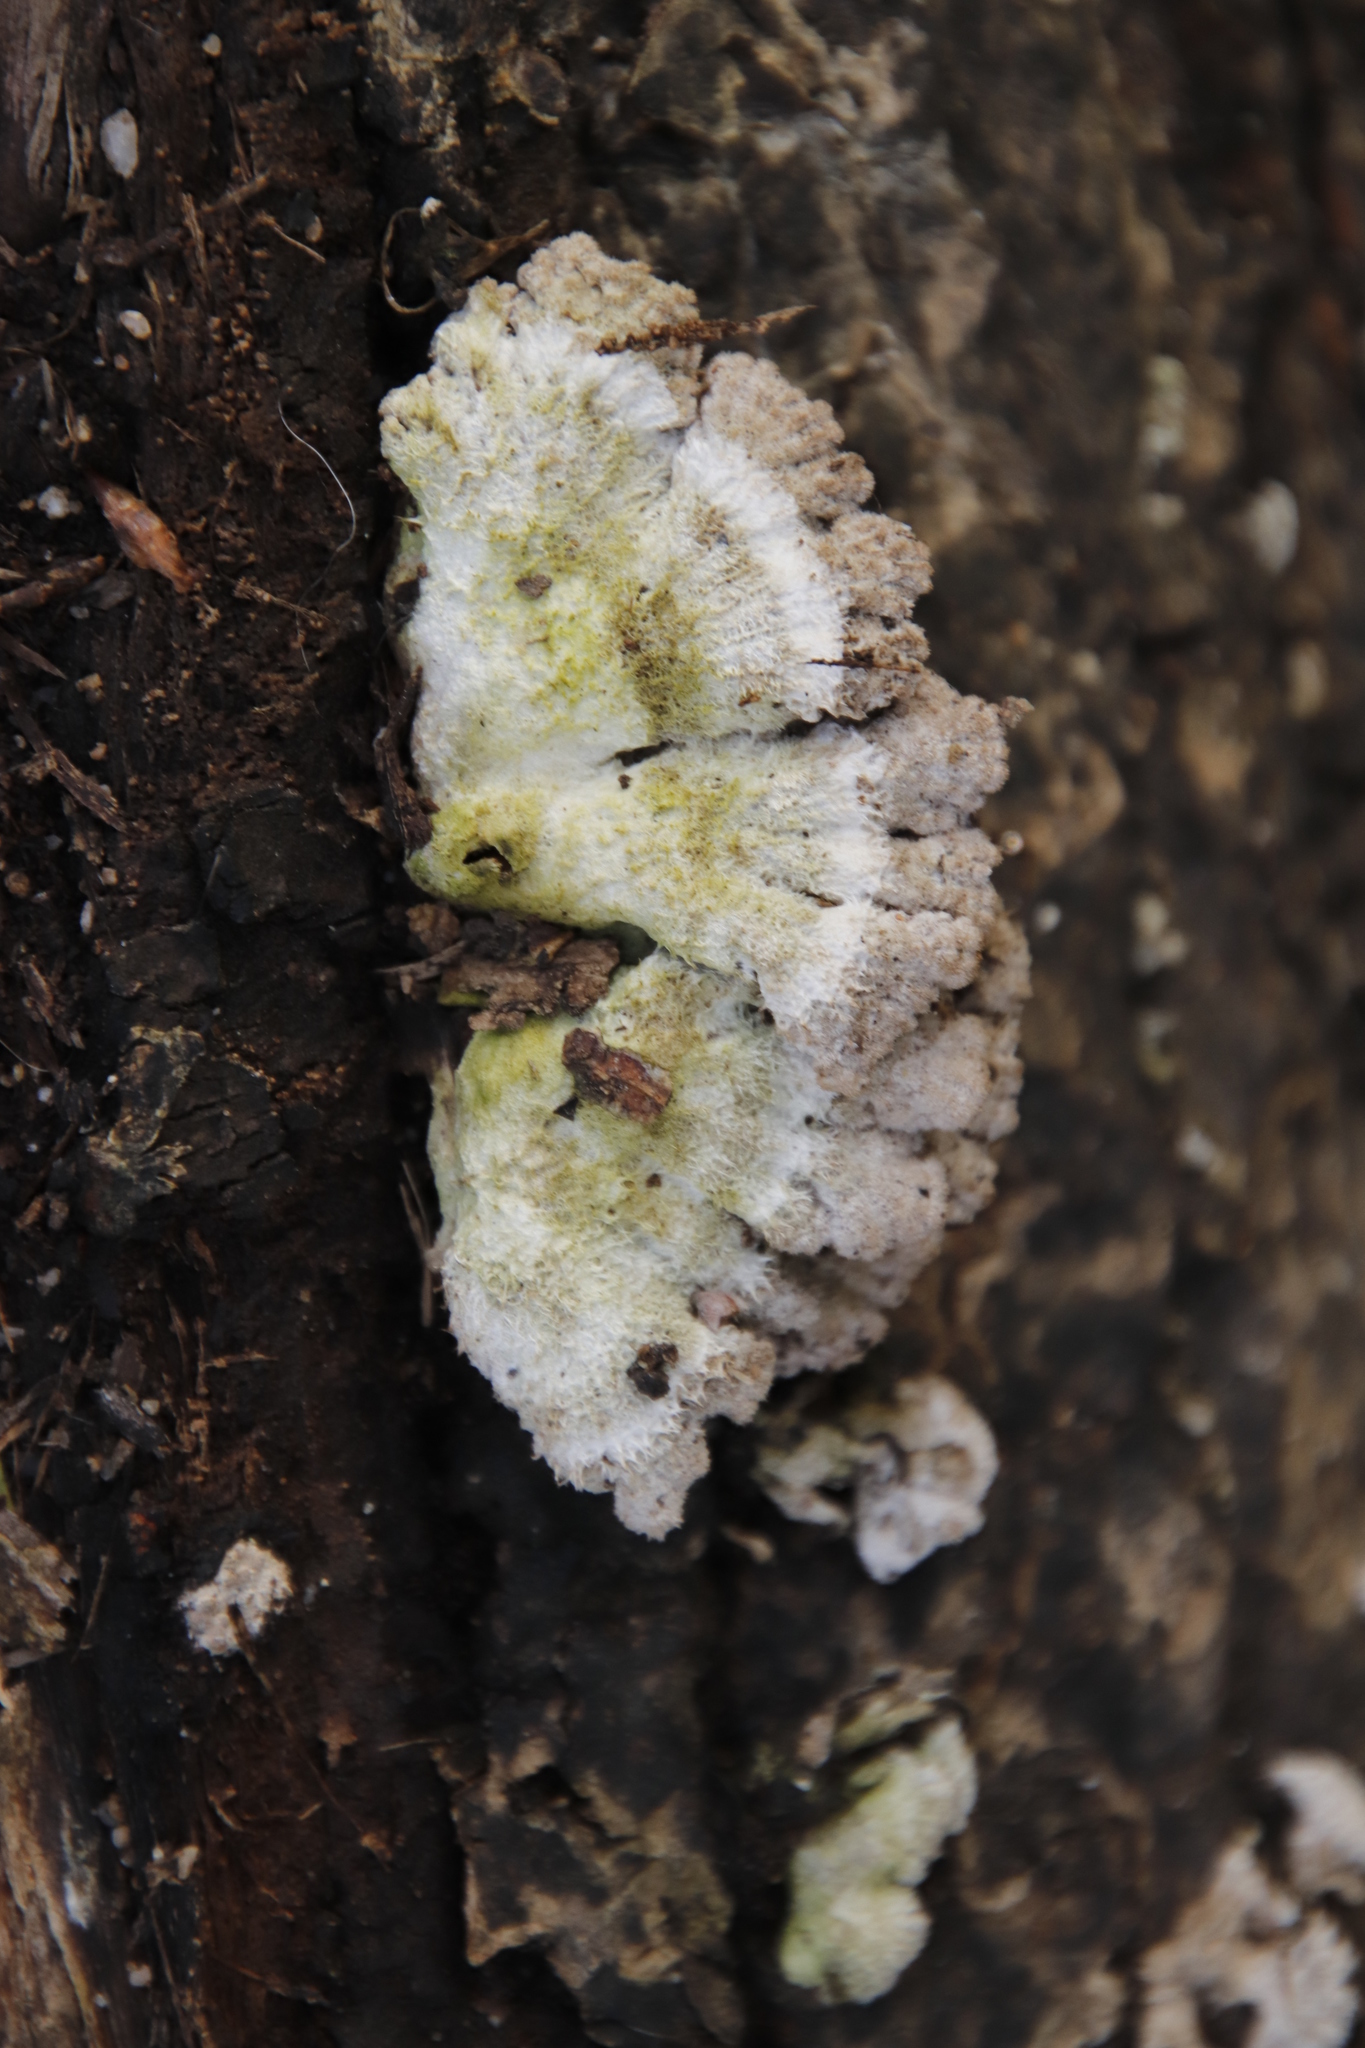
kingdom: Fungi
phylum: Basidiomycota
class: Agaricomycetes
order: Agaricales
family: Schizophyllaceae
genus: Schizophyllum
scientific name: Schizophyllum commune
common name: Common porecrust
